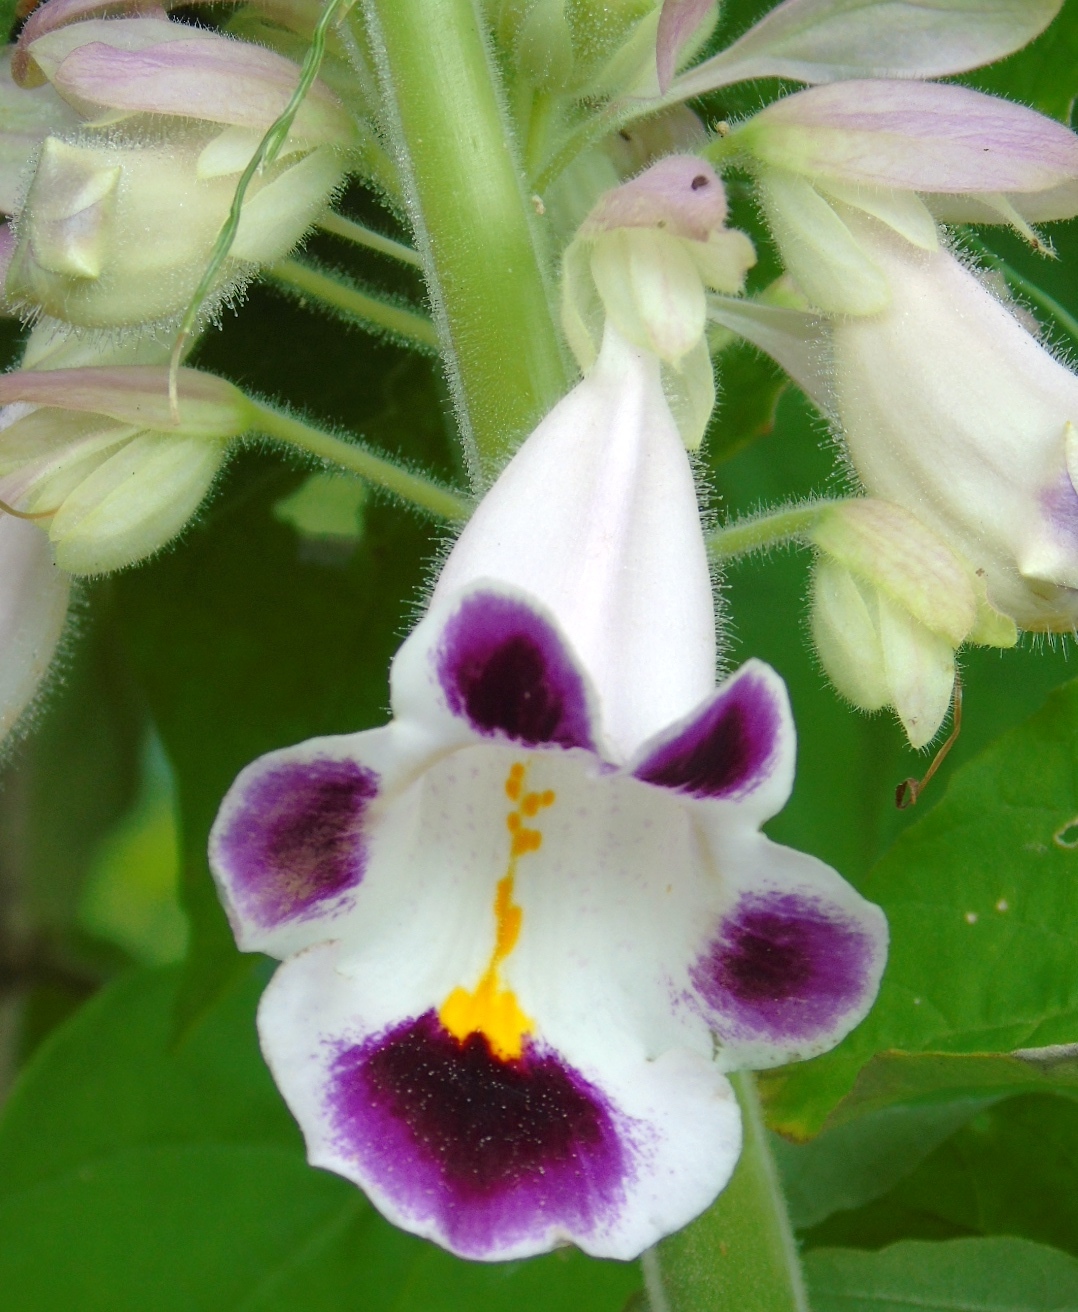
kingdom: Plantae
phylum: Tracheophyta
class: Magnoliopsida
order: Lamiales
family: Martyniaceae
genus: Martynia
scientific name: Martynia annua
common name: Tiger's-claw
